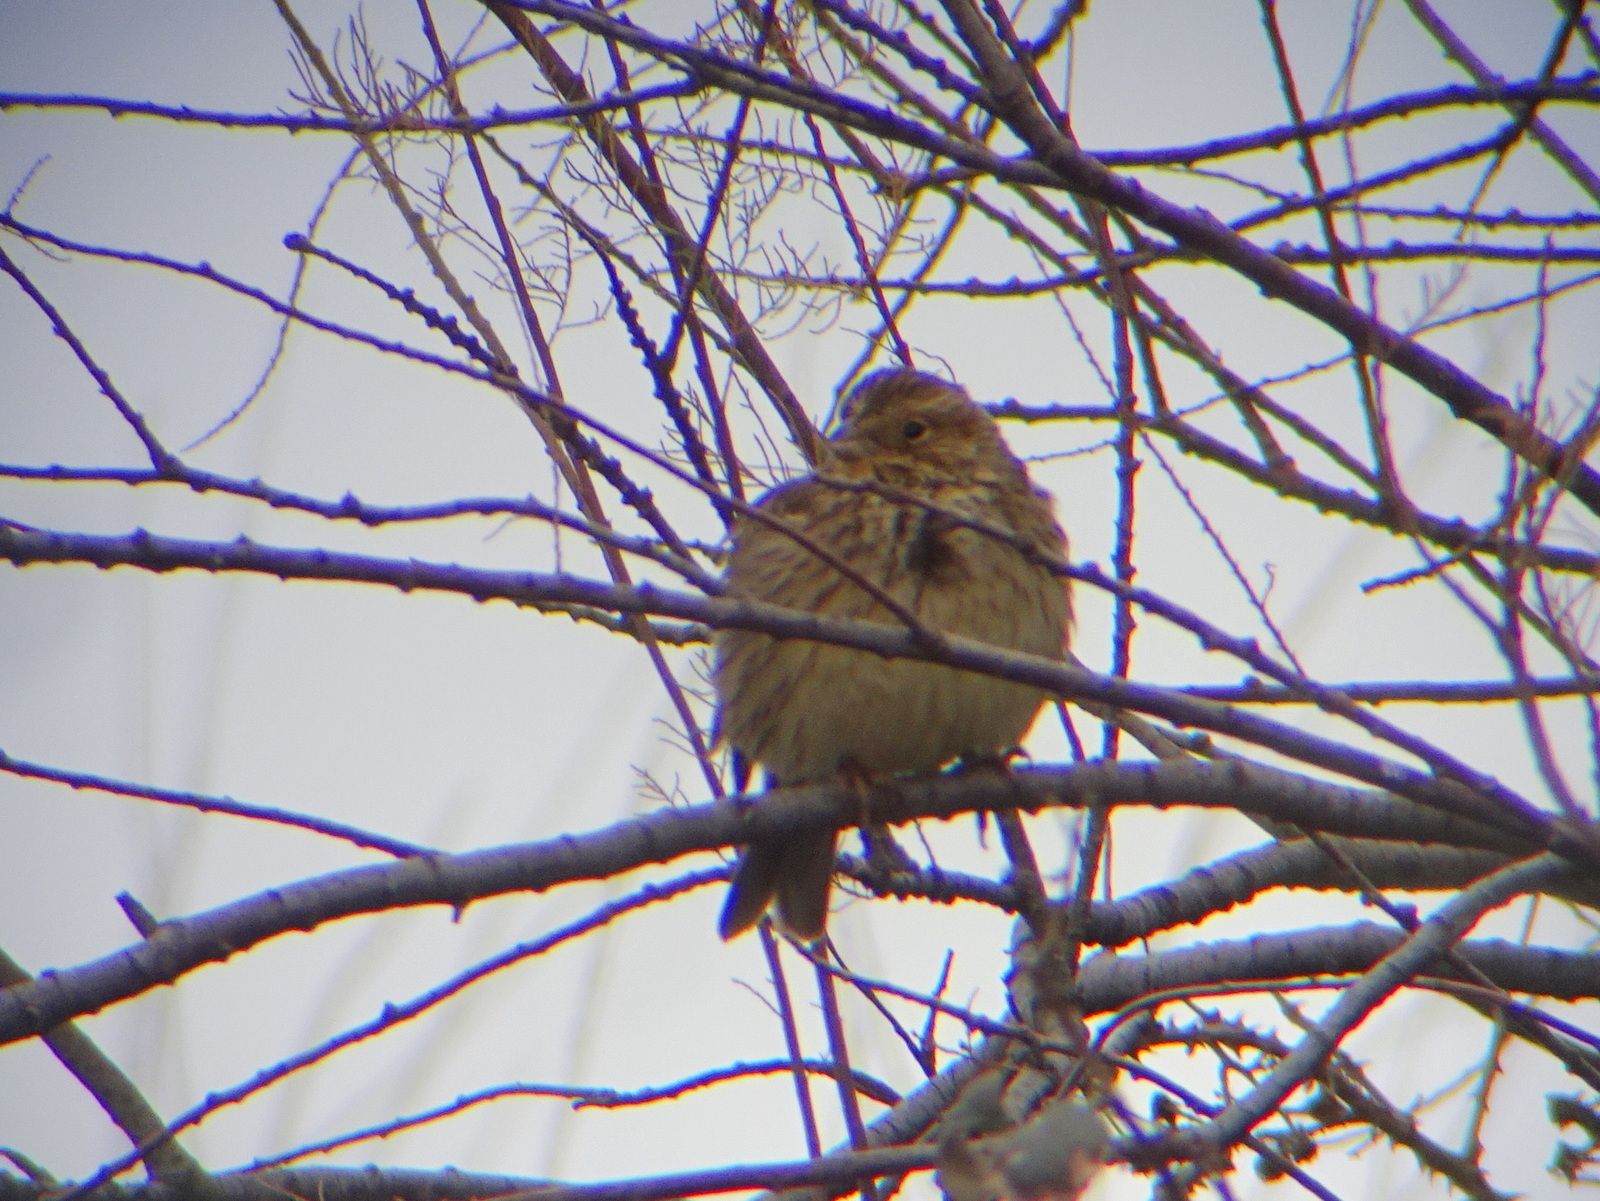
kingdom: Animalia
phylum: Chordata
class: Aves
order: Passeriformes
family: Emberizidae
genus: Emberiza
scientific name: Emberiza calandra
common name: Corn bunting
